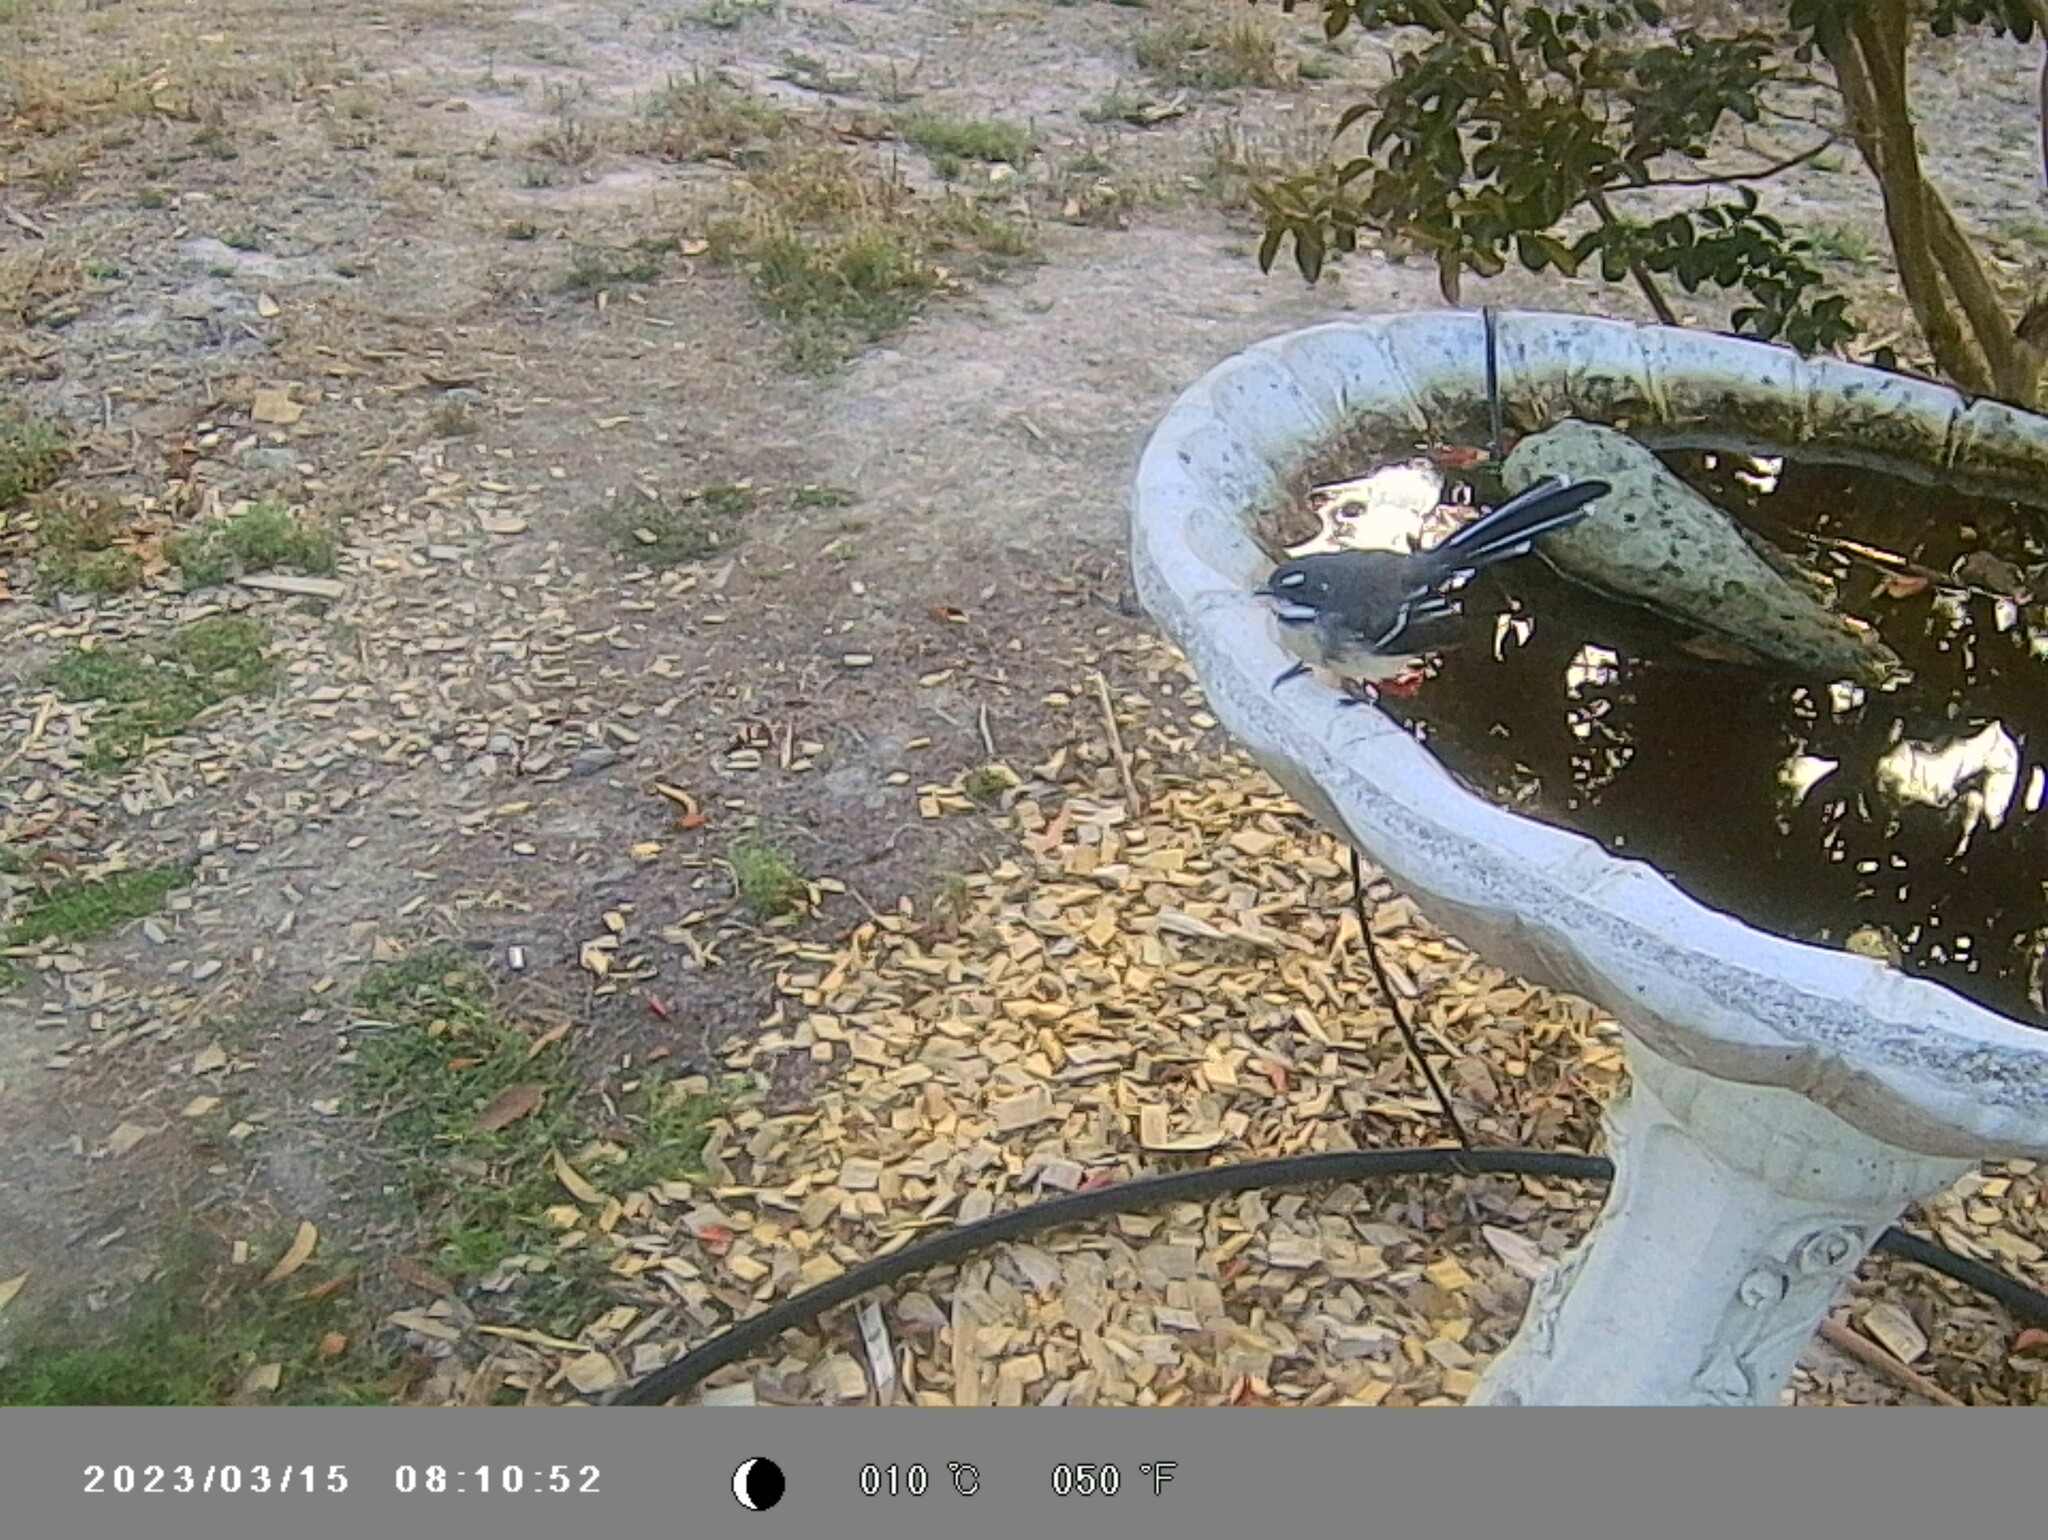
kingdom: Animalia
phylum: Chordata
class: Aves
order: Passeriformes
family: Rhipiduridae
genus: Rhipidura
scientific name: Rhipidura albiscapa
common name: Grey fantail
